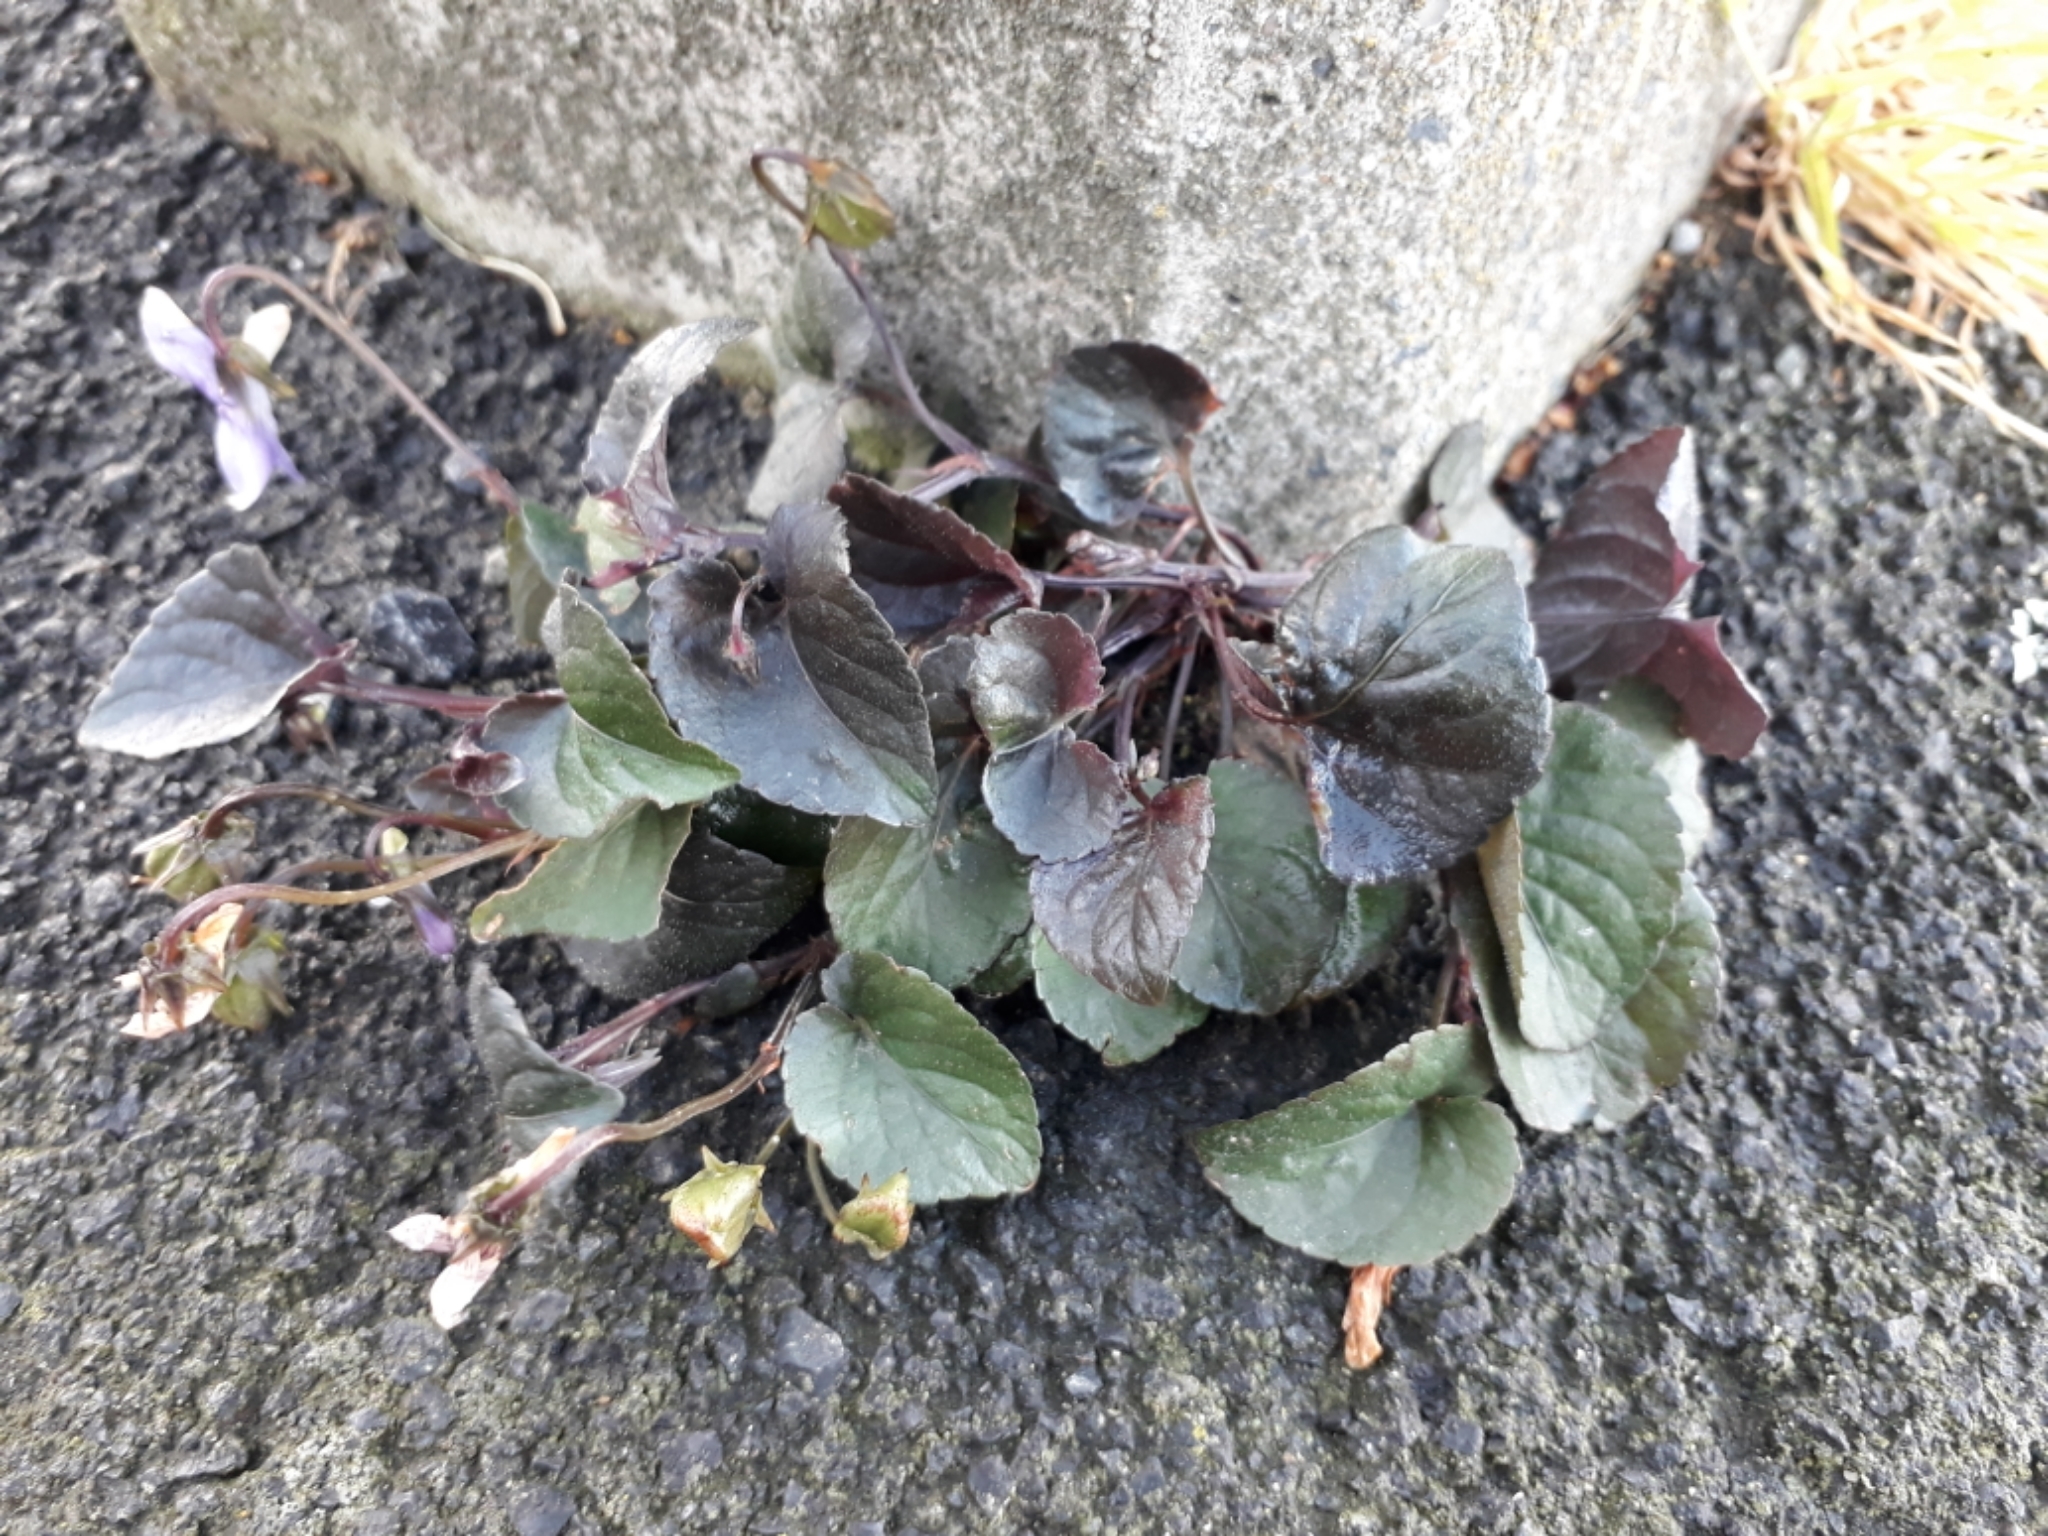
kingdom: Plantae
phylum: Tracheophyta
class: Magnoliopsida
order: Malpighiales
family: Violaceae
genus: Viola
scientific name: Viola riviniana
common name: Common dog-violet
